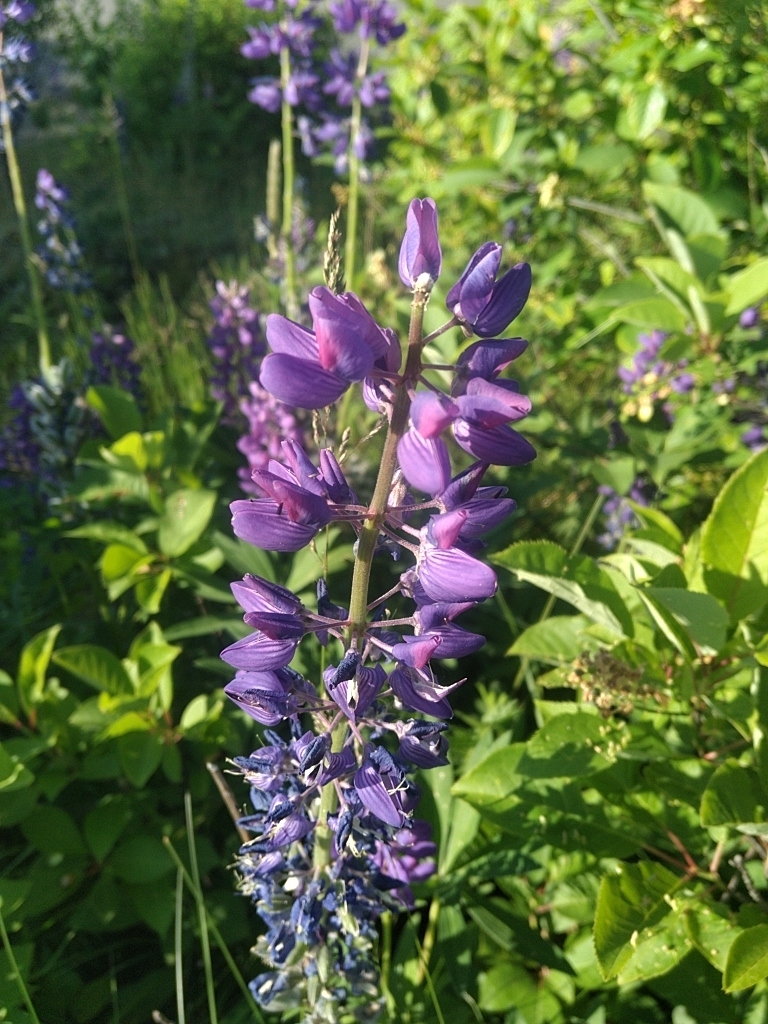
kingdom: Plantae
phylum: Tracheophyta
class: Magnoliopsida
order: Fabales
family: Fabaceae
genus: Lupinus
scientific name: Lupinus polyphyllus
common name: Garden lupin
